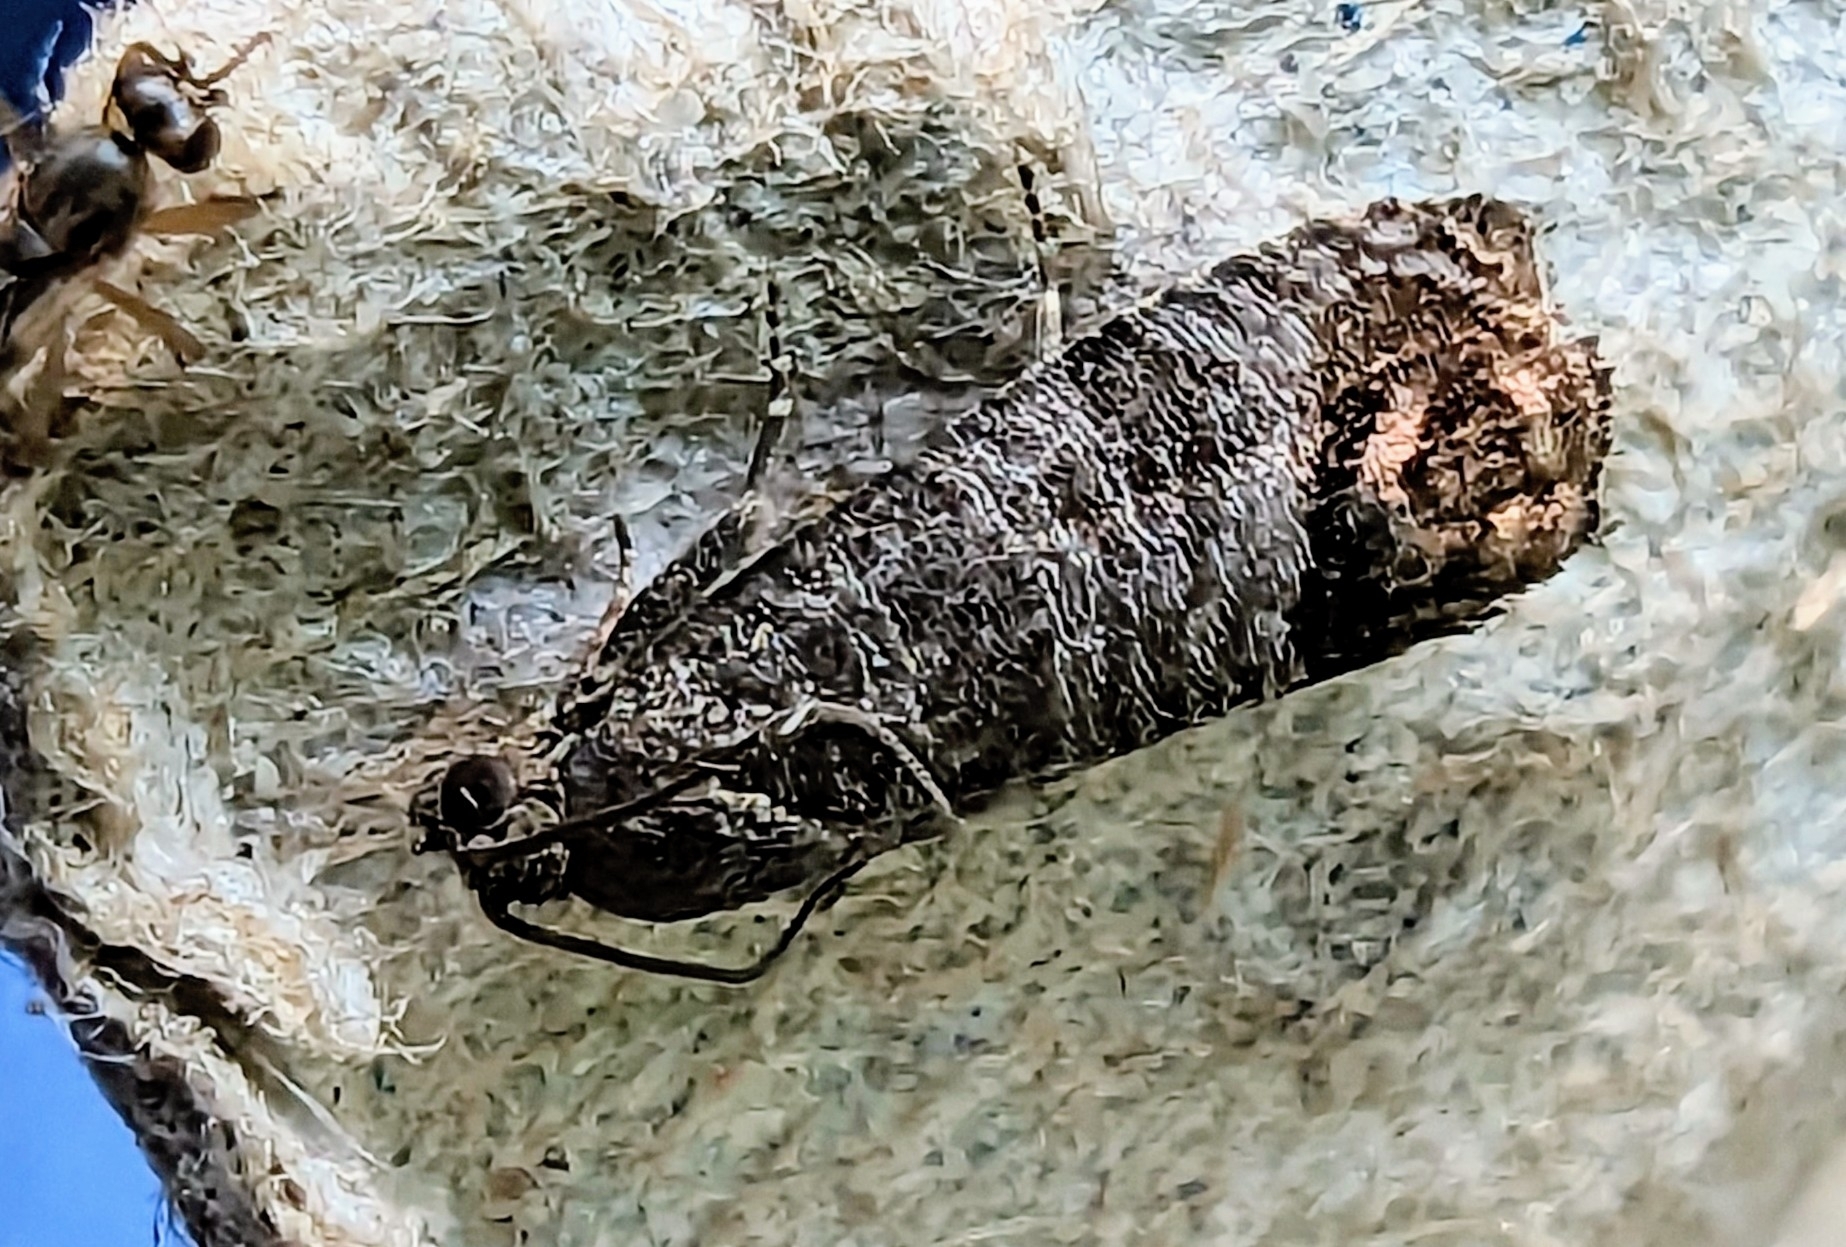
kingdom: Animalia
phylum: Arthropoda
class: Insecta
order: Lepidoptera
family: Tortricidae
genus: Cydia
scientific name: Cydia pomonella
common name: Codling moth
